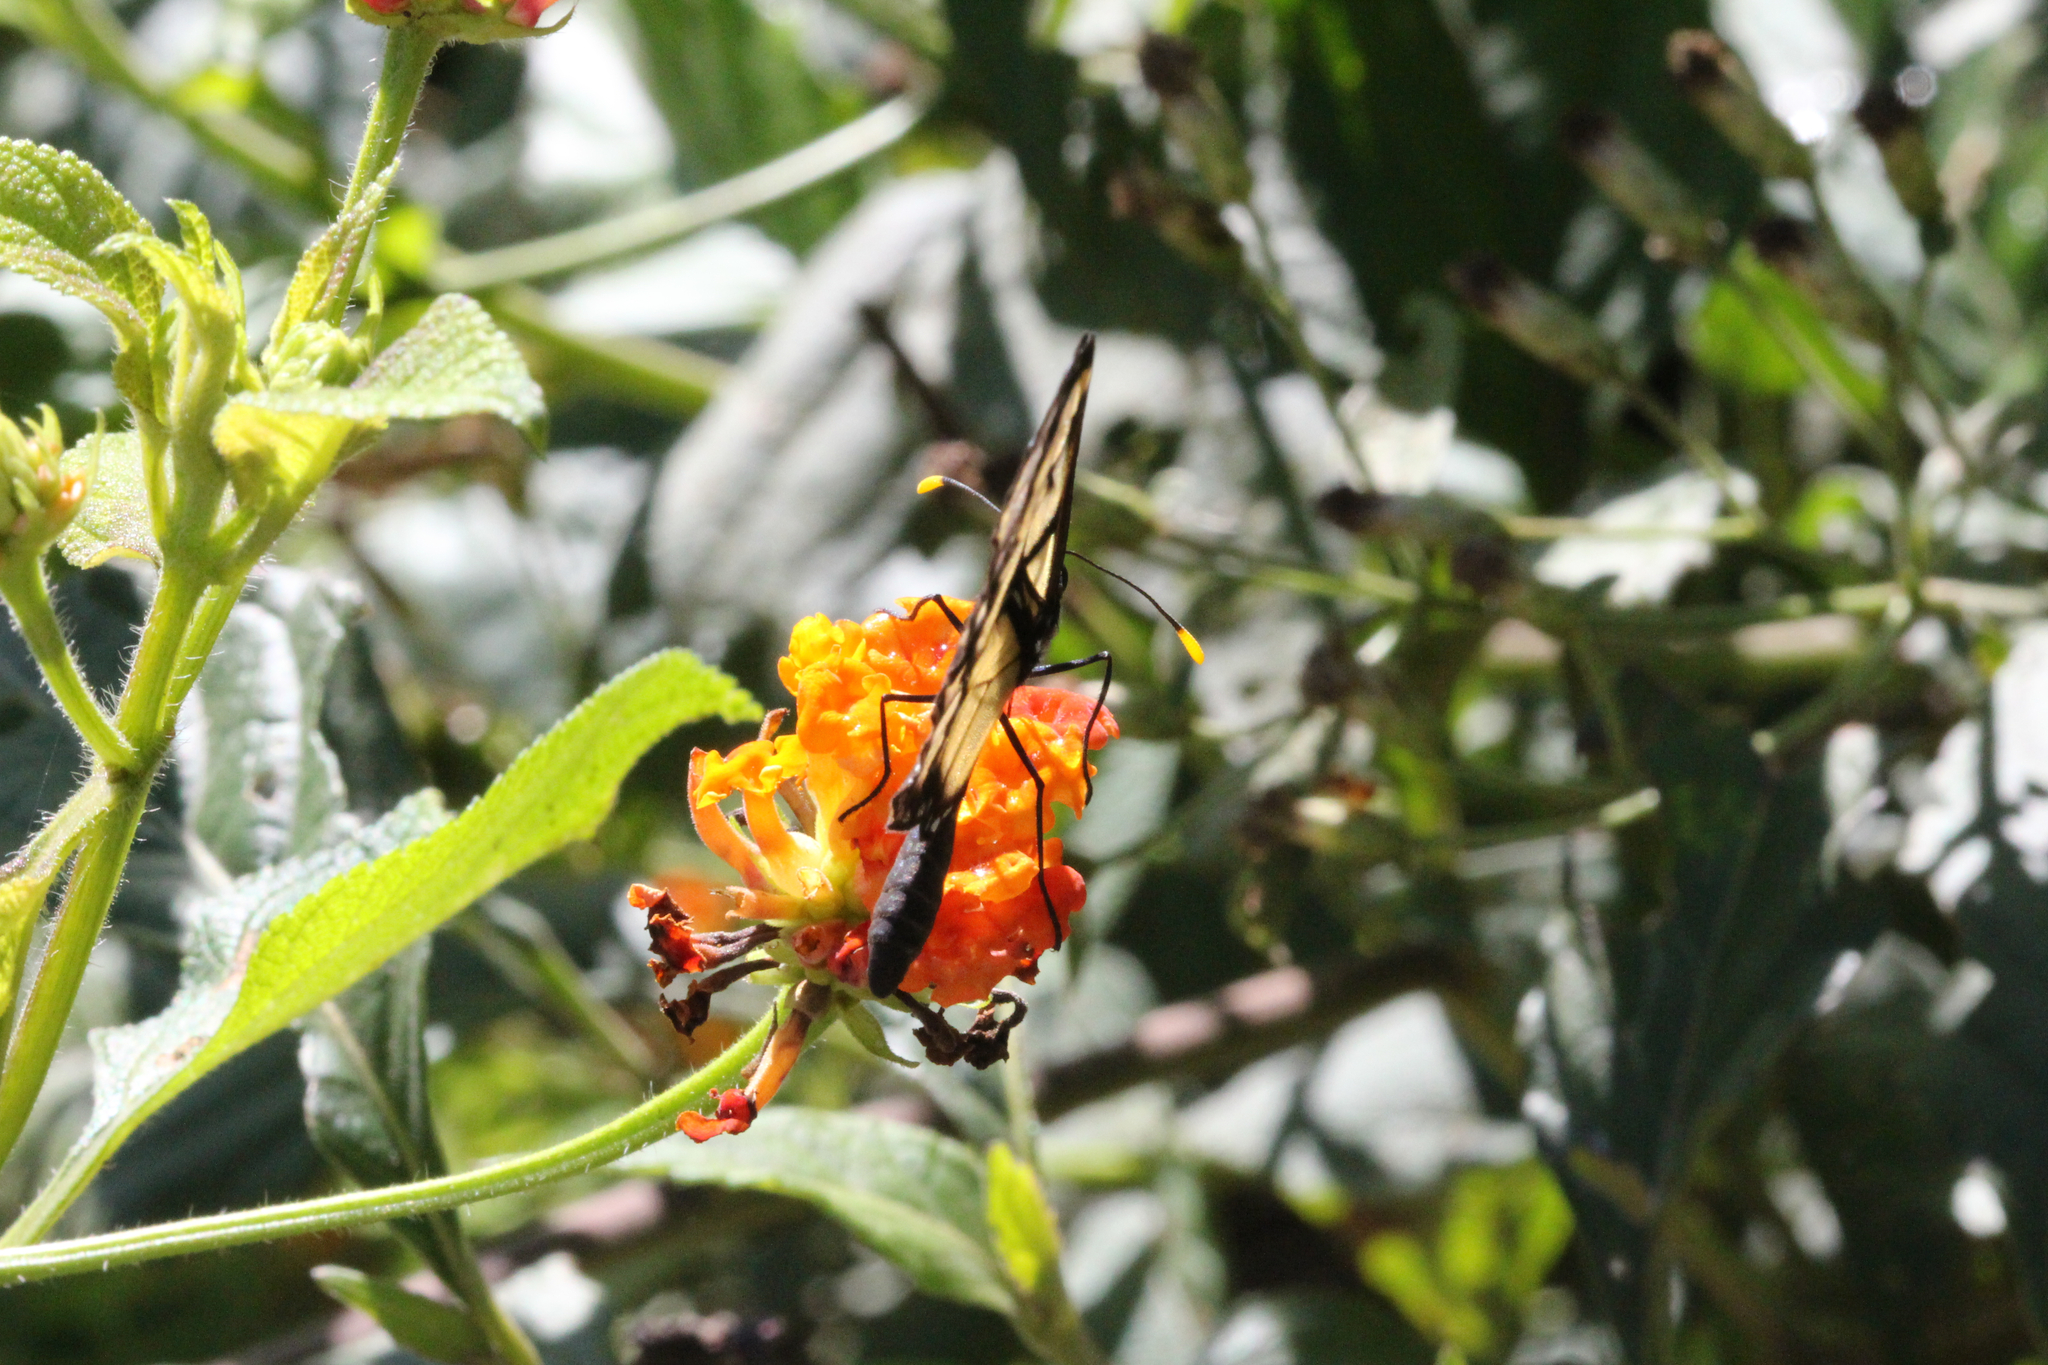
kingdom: Animalia
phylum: Arthropoda
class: Insecta
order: Lepidoptera
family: Nymphalidae
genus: Dircenna
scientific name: Dircenna dero
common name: Dero clearwing
